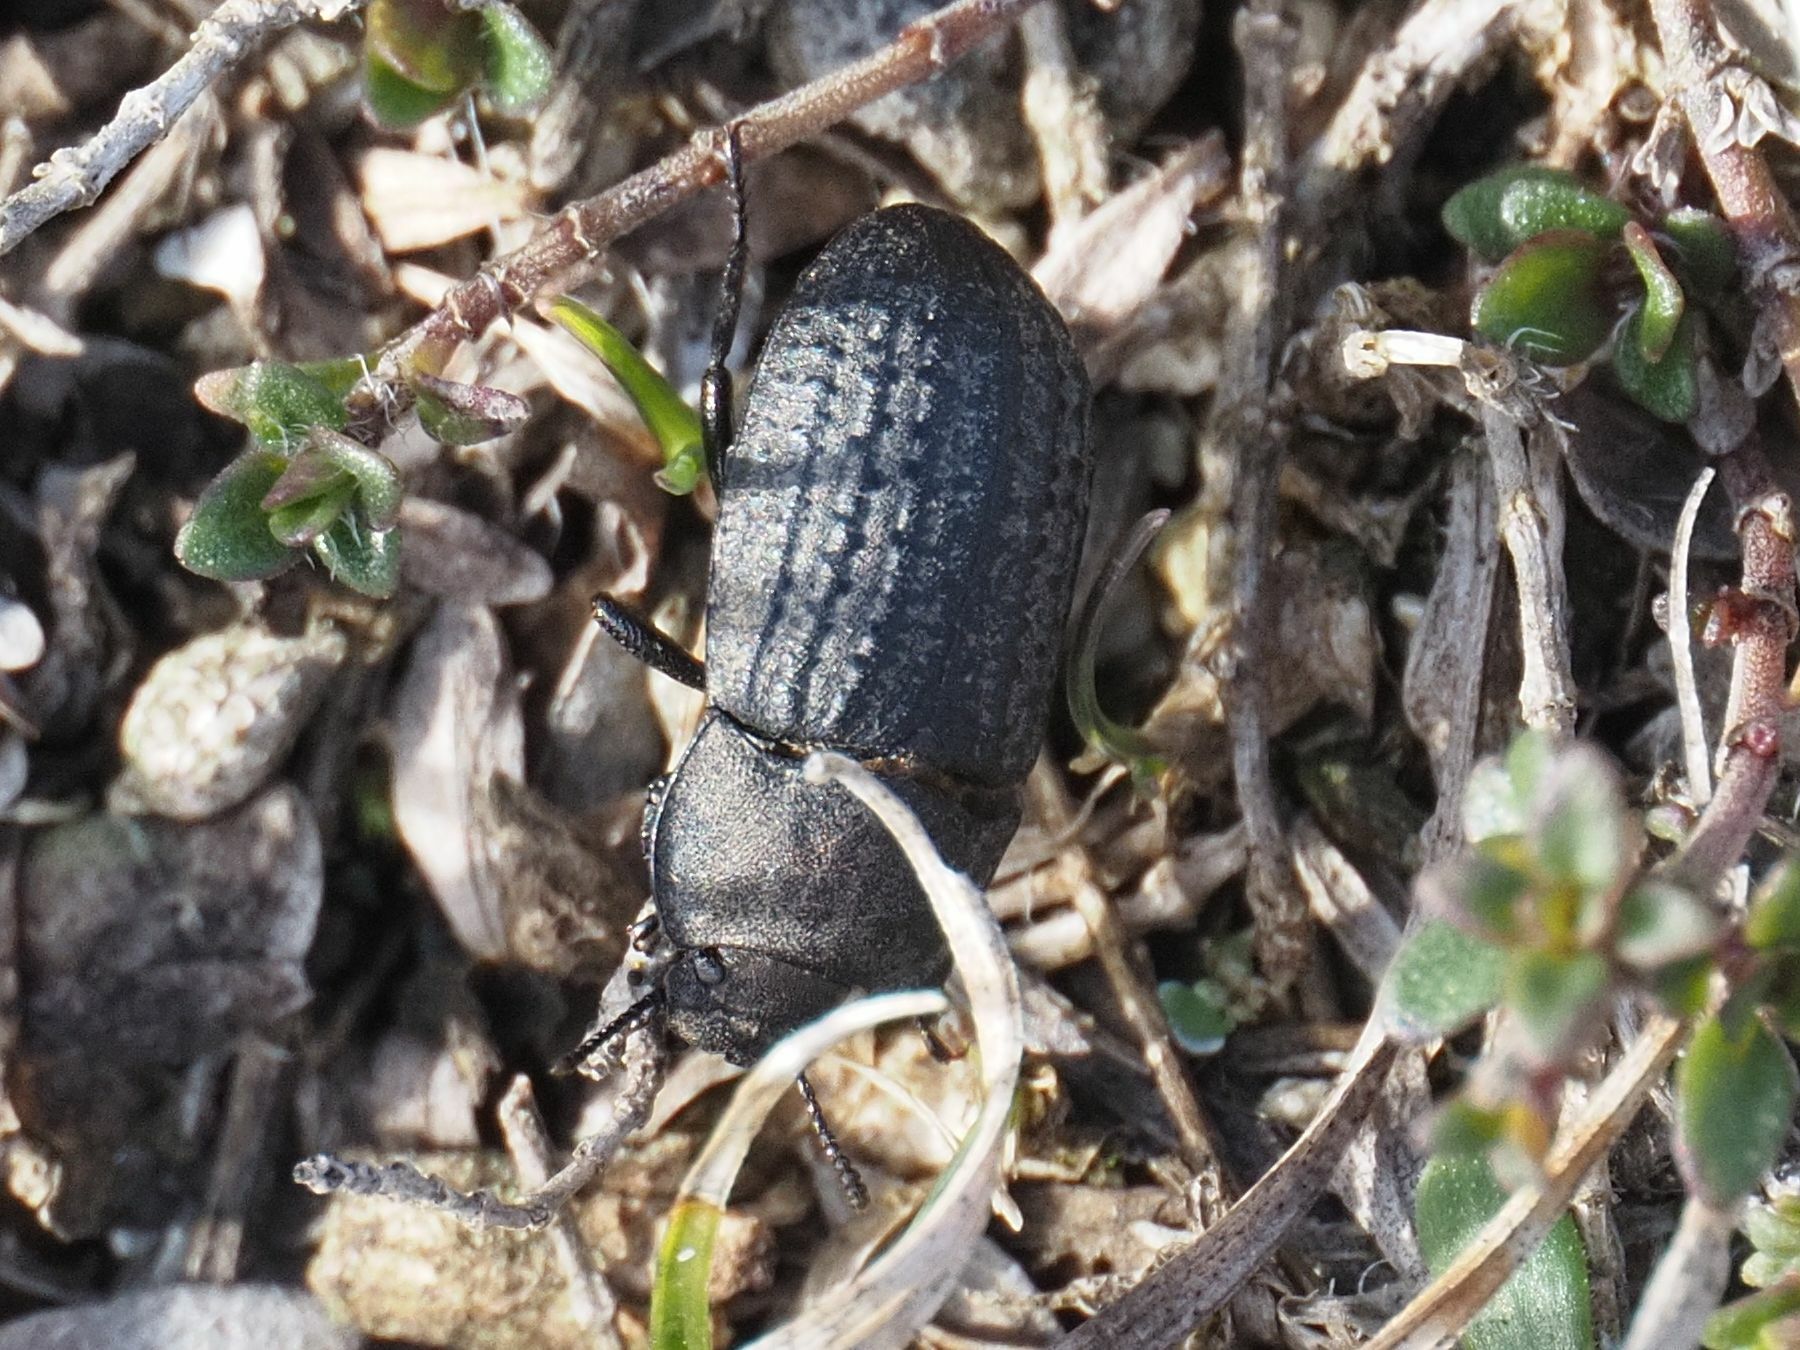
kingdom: Animalia
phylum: Arthropoda
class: Insecta
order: Coleoptera
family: Tenebrionidae
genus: Opatrum
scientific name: Opatrum sabulosum
